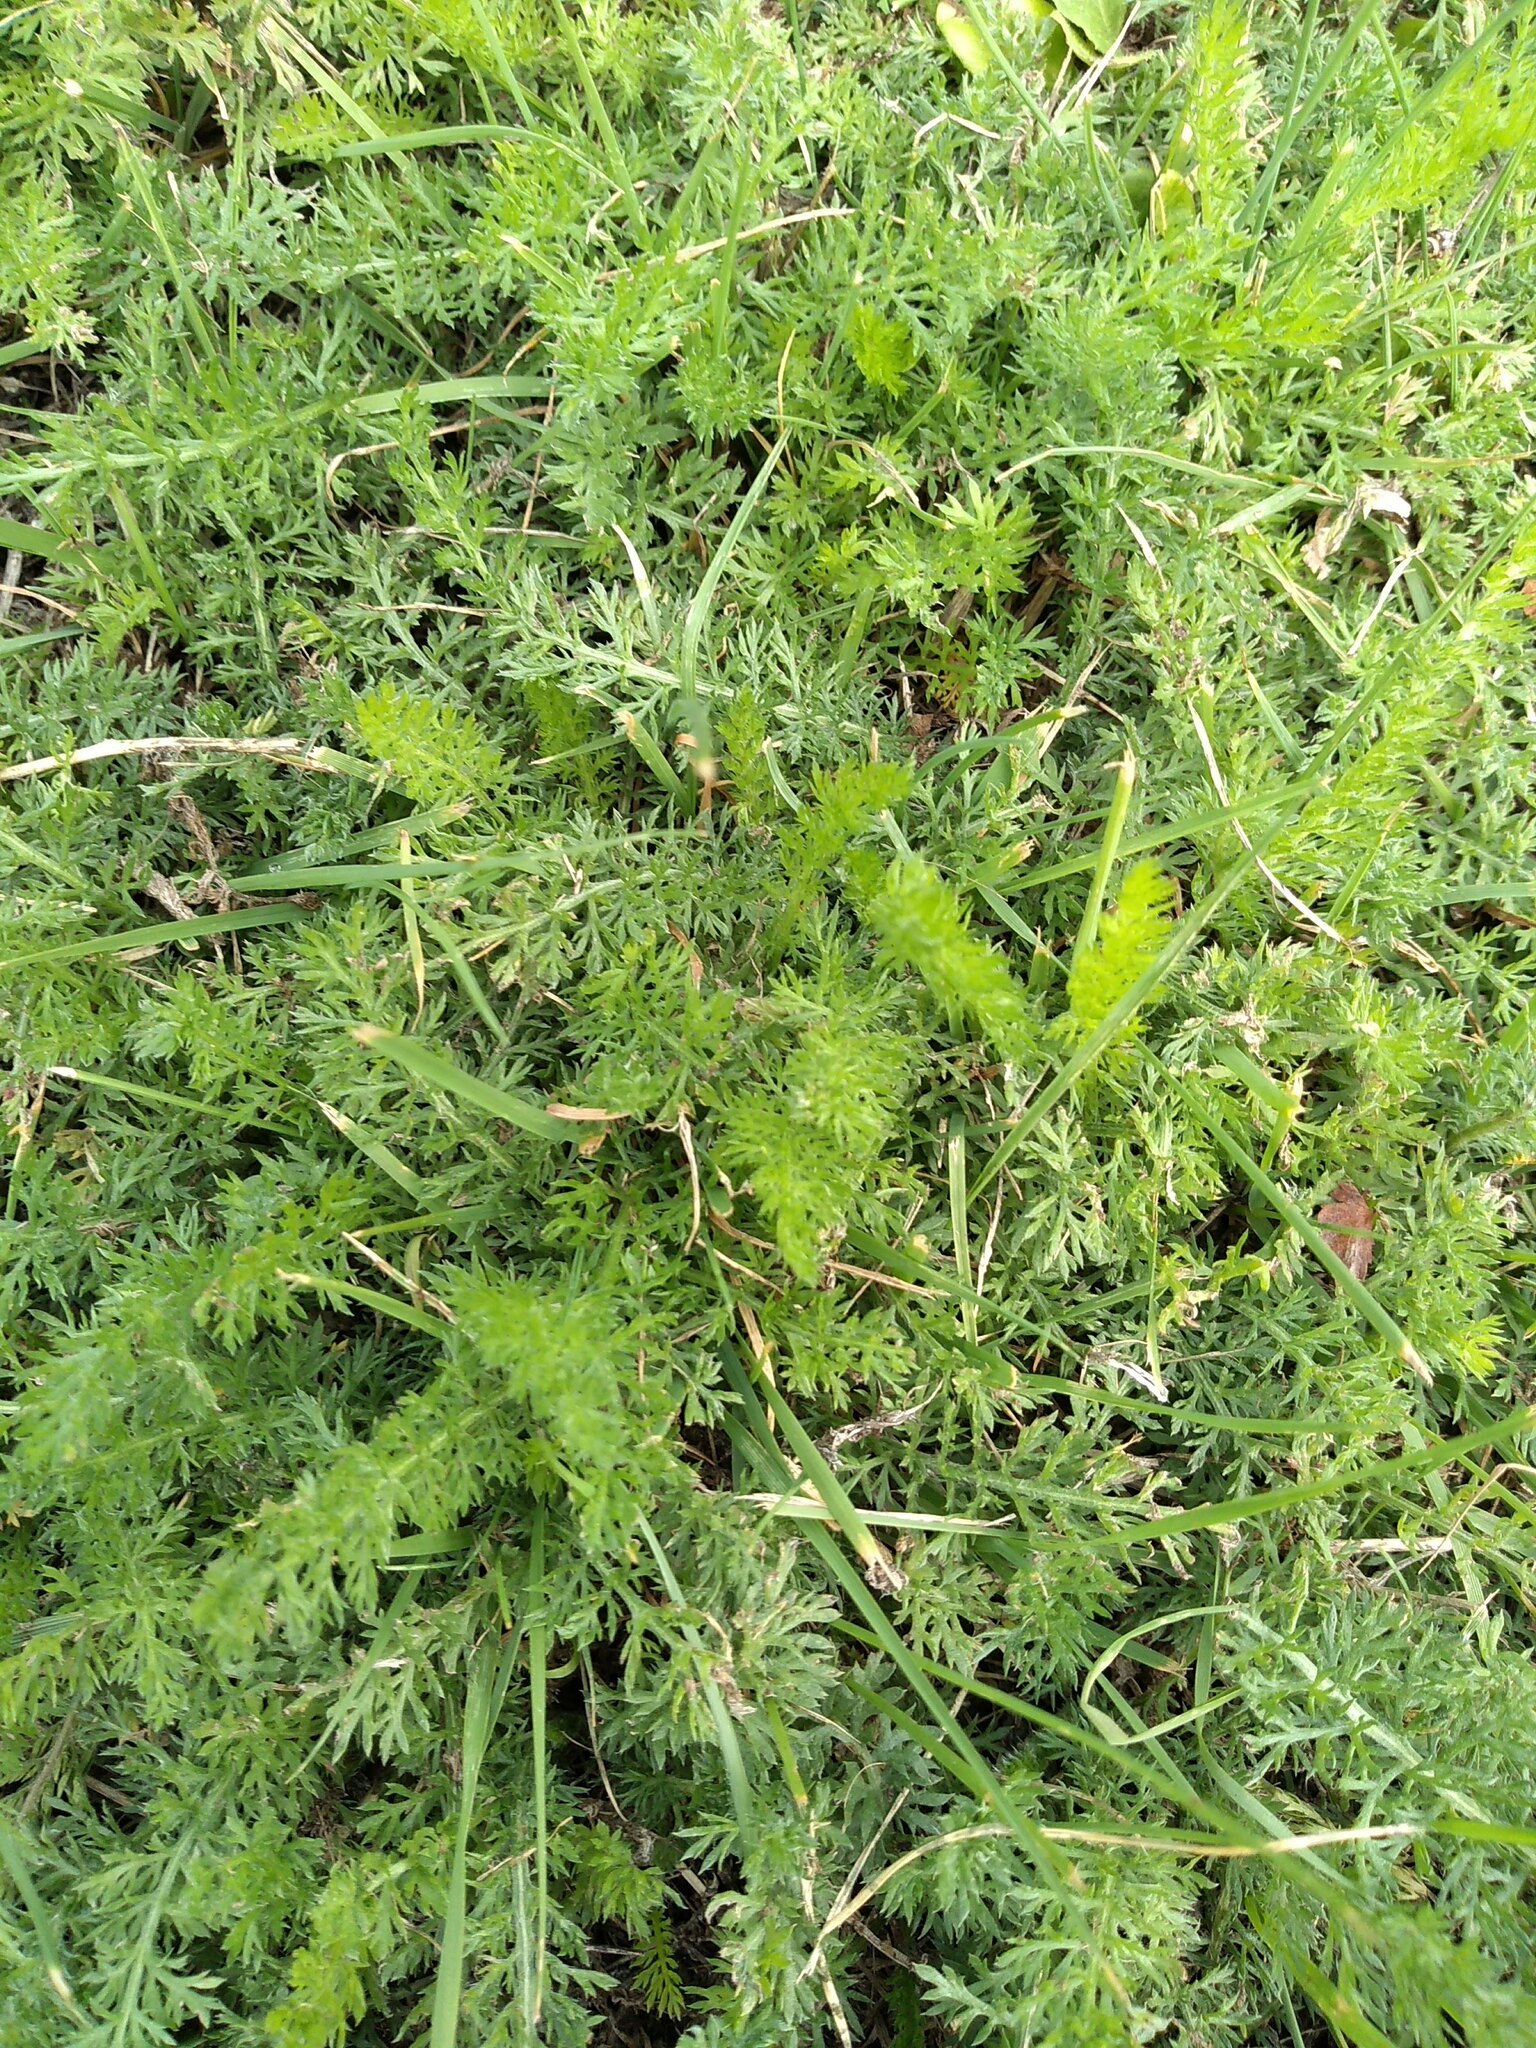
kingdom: Plantae
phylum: Tracheophyta
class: Magnoliopsida
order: Asterales
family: Asteraceae
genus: Achillea
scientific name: Achillea millefolium
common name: Yarrow
